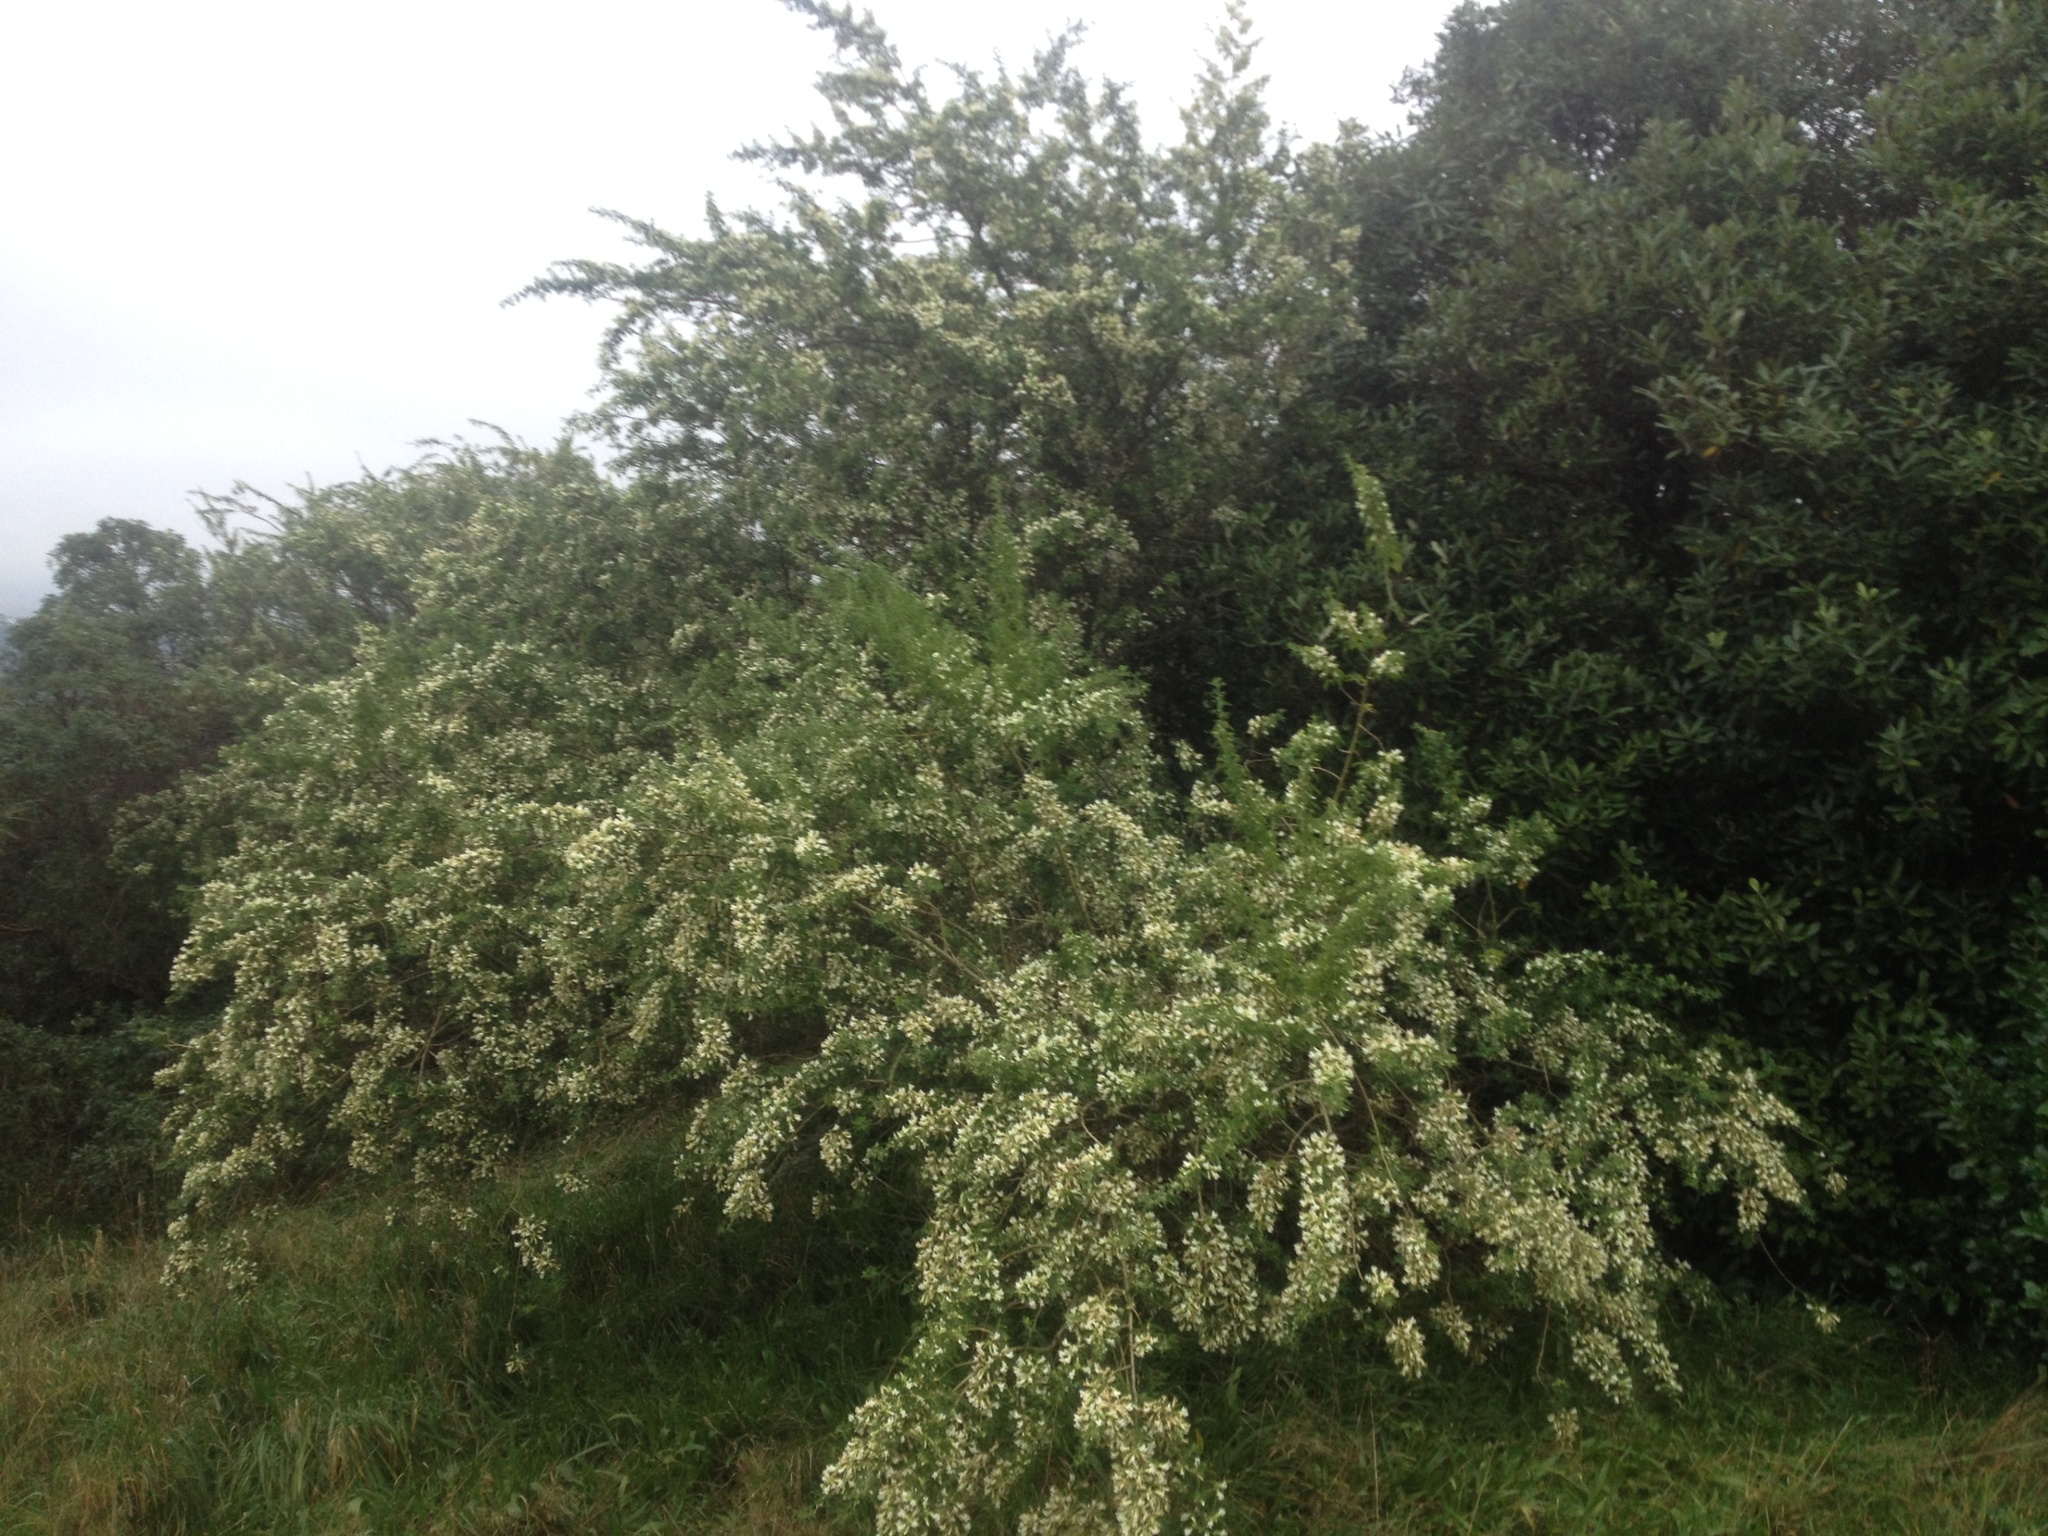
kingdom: Plantae
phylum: Tracheophyta
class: Magnoliopsida
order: Fabales
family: Fabaceae
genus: Chamaecytisus
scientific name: Chamaecytisus prolifer
